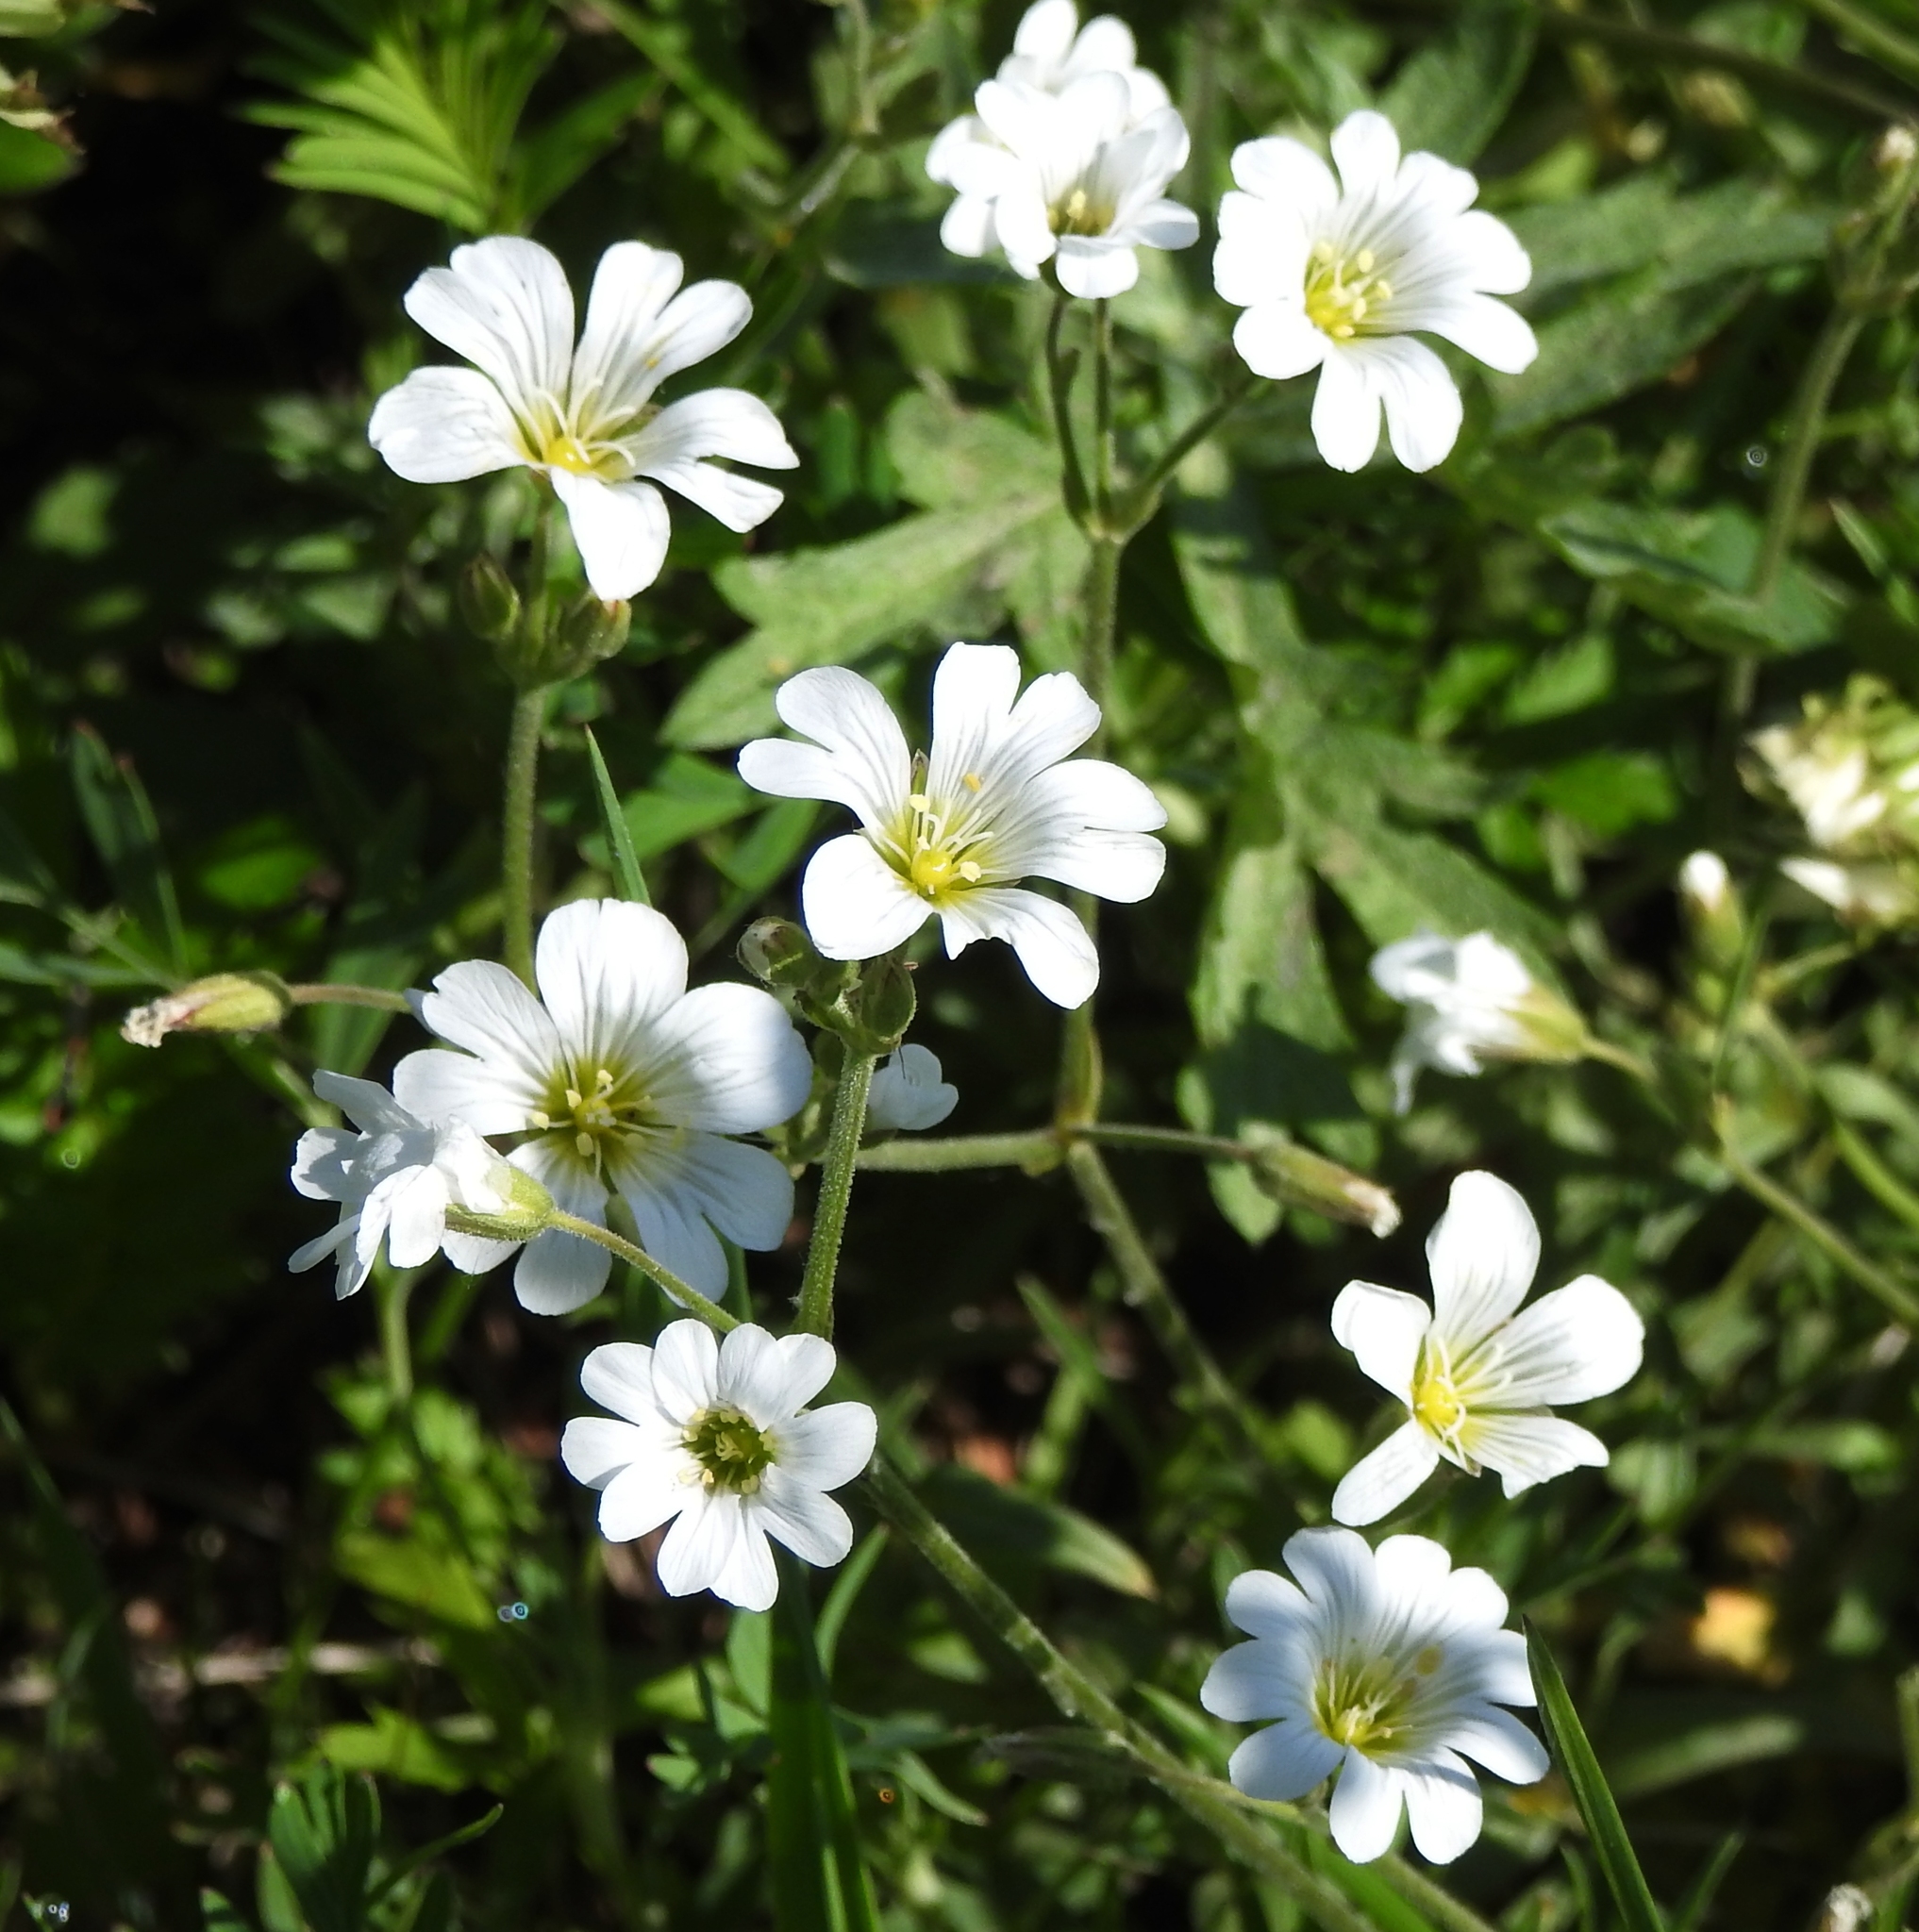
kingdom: Plantae
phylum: Tracheophyta
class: Magnoliopsida
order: Caryophyllales
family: Caryophyllaceae
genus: Cerastium
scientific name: Cerastium arvense
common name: Field mouse-ear
